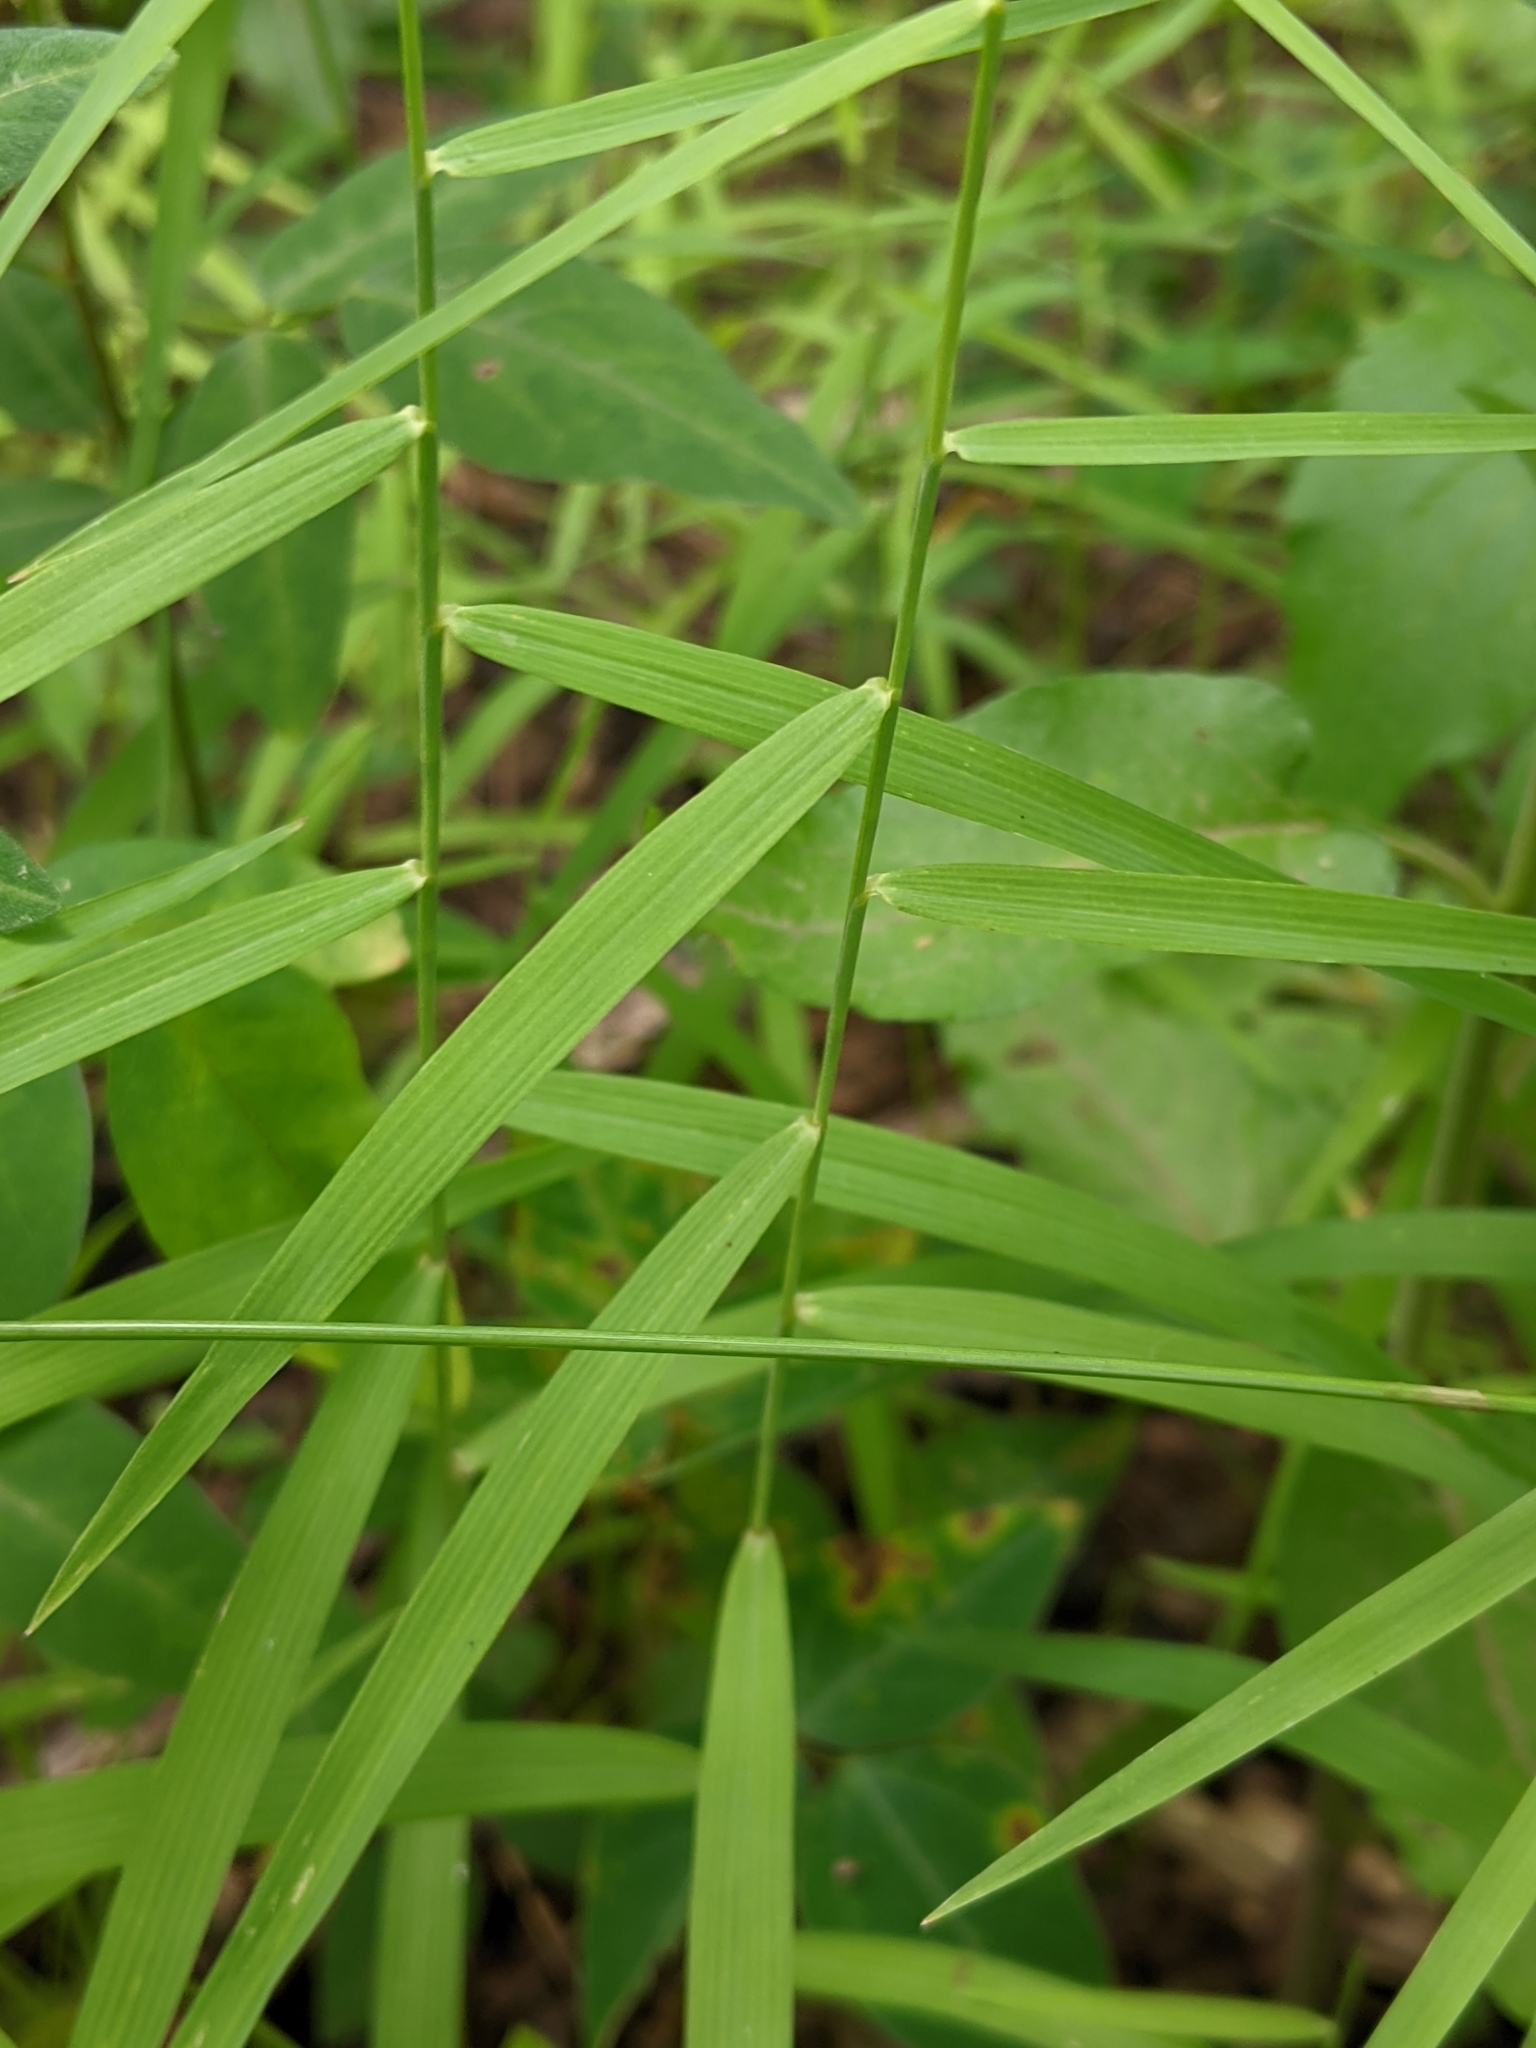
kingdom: Plantae
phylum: Tracheophyta
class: Liliopsida
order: Poales
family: Poaceae
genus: Muhlenbergia
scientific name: Muhlenbergia sobolifera
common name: Creeping muhly
